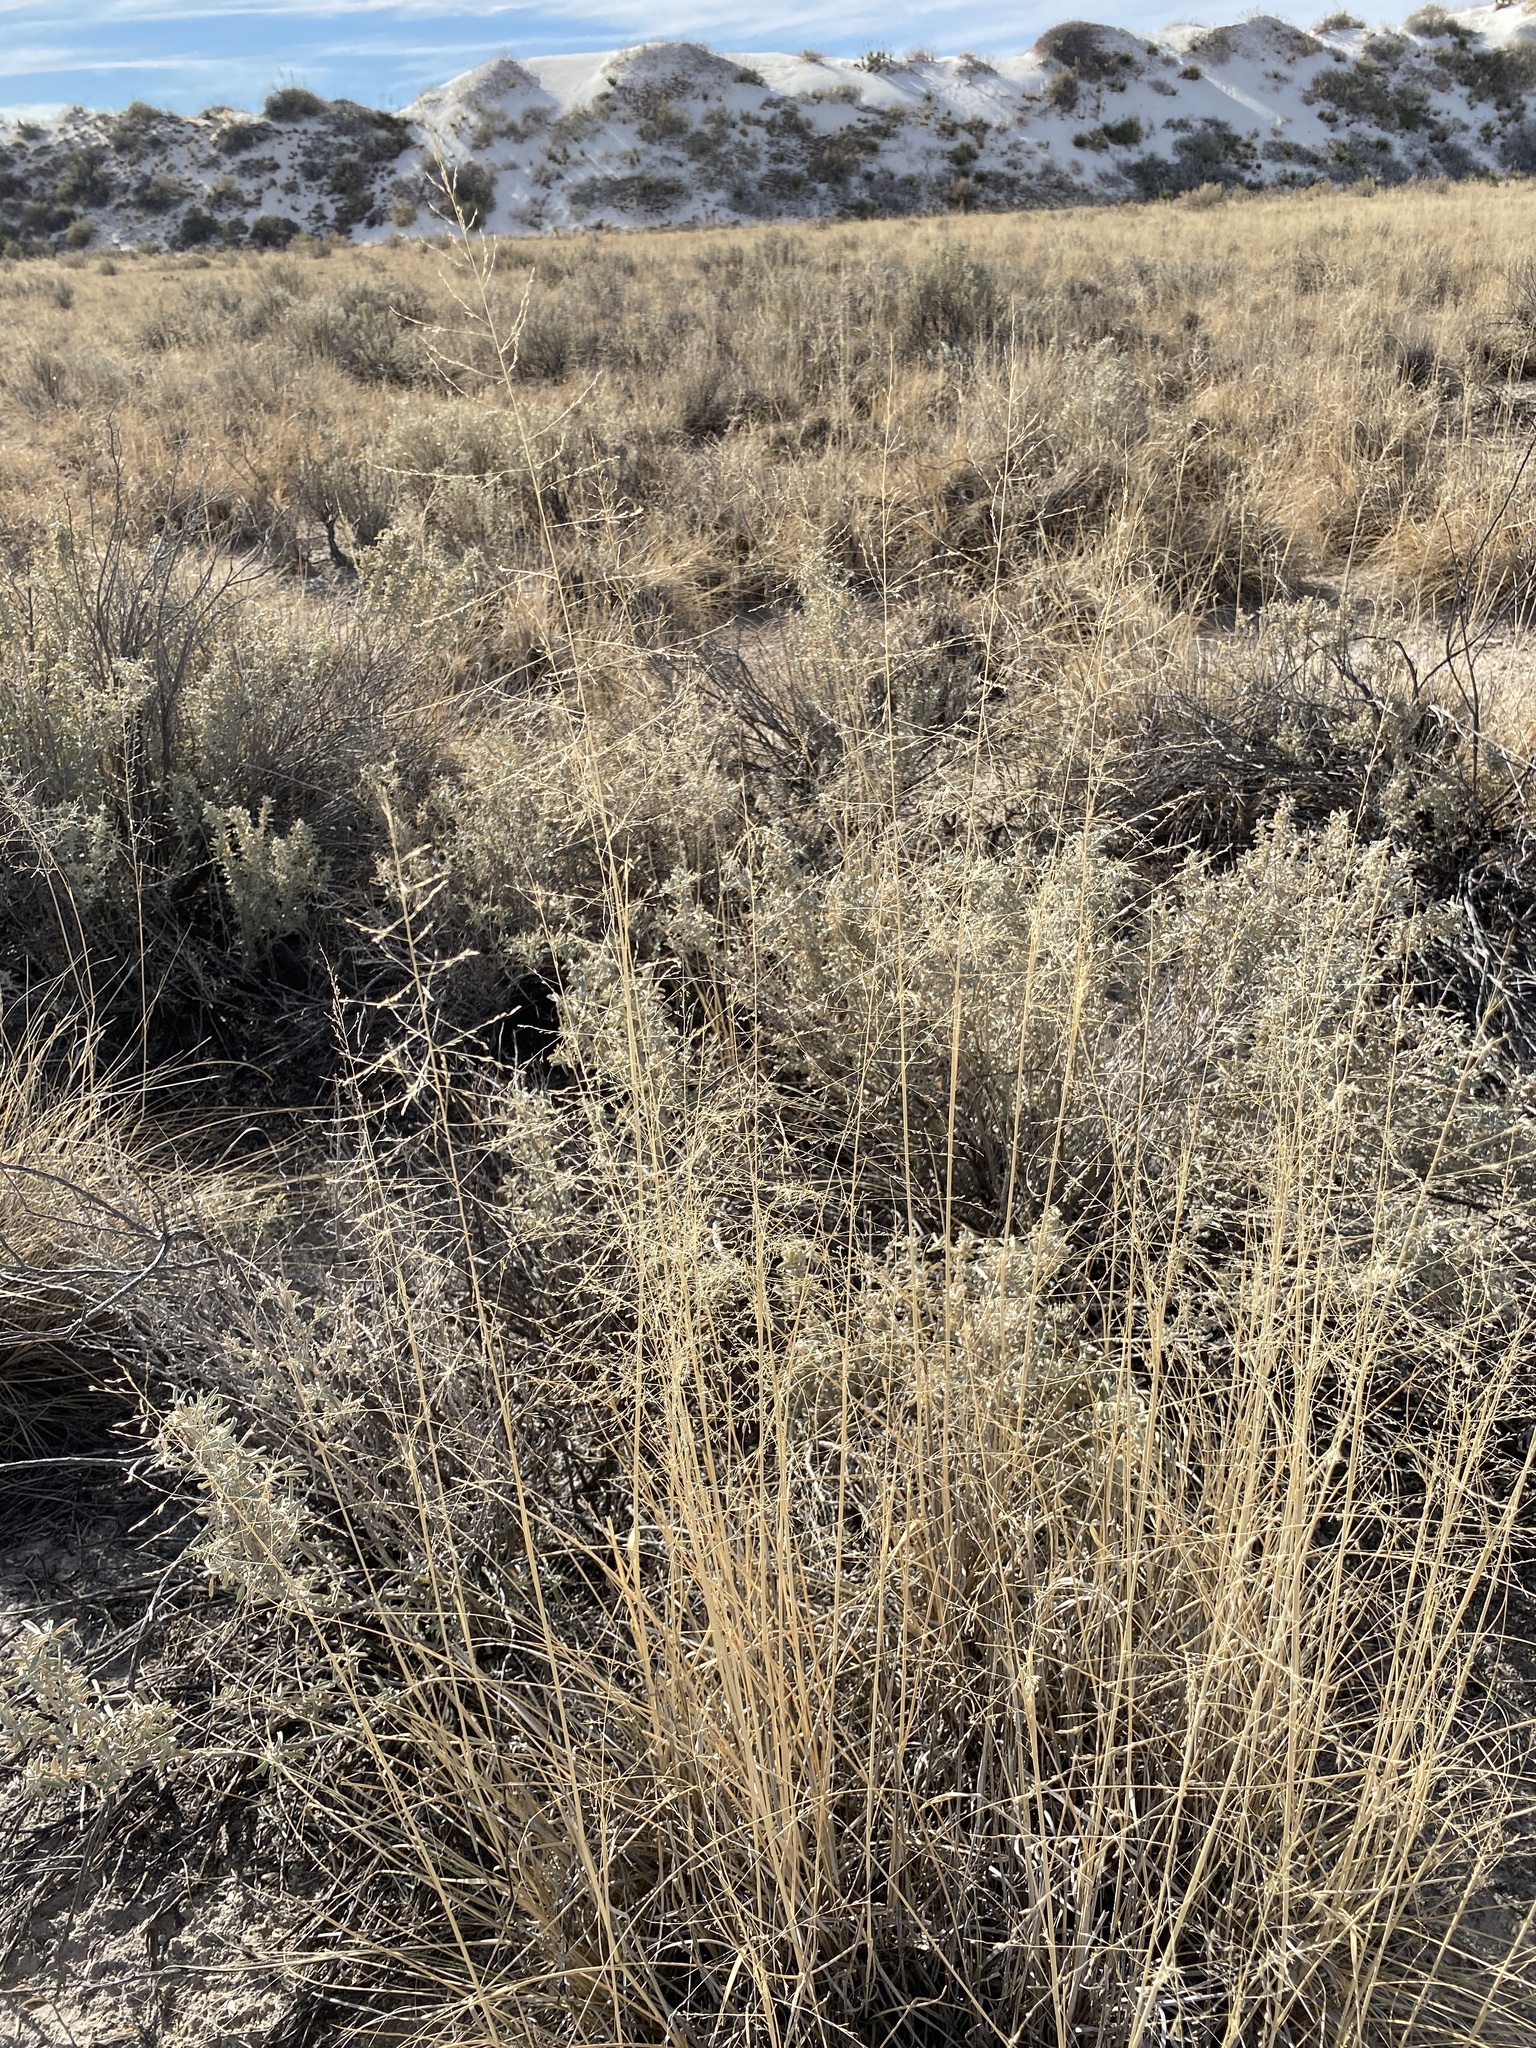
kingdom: Plantae
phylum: Tracheophyta
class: Liliopsida
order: Poales
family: Poaceae
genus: Sporobolus
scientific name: Sporobolus airoides
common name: Alkali sacaton
